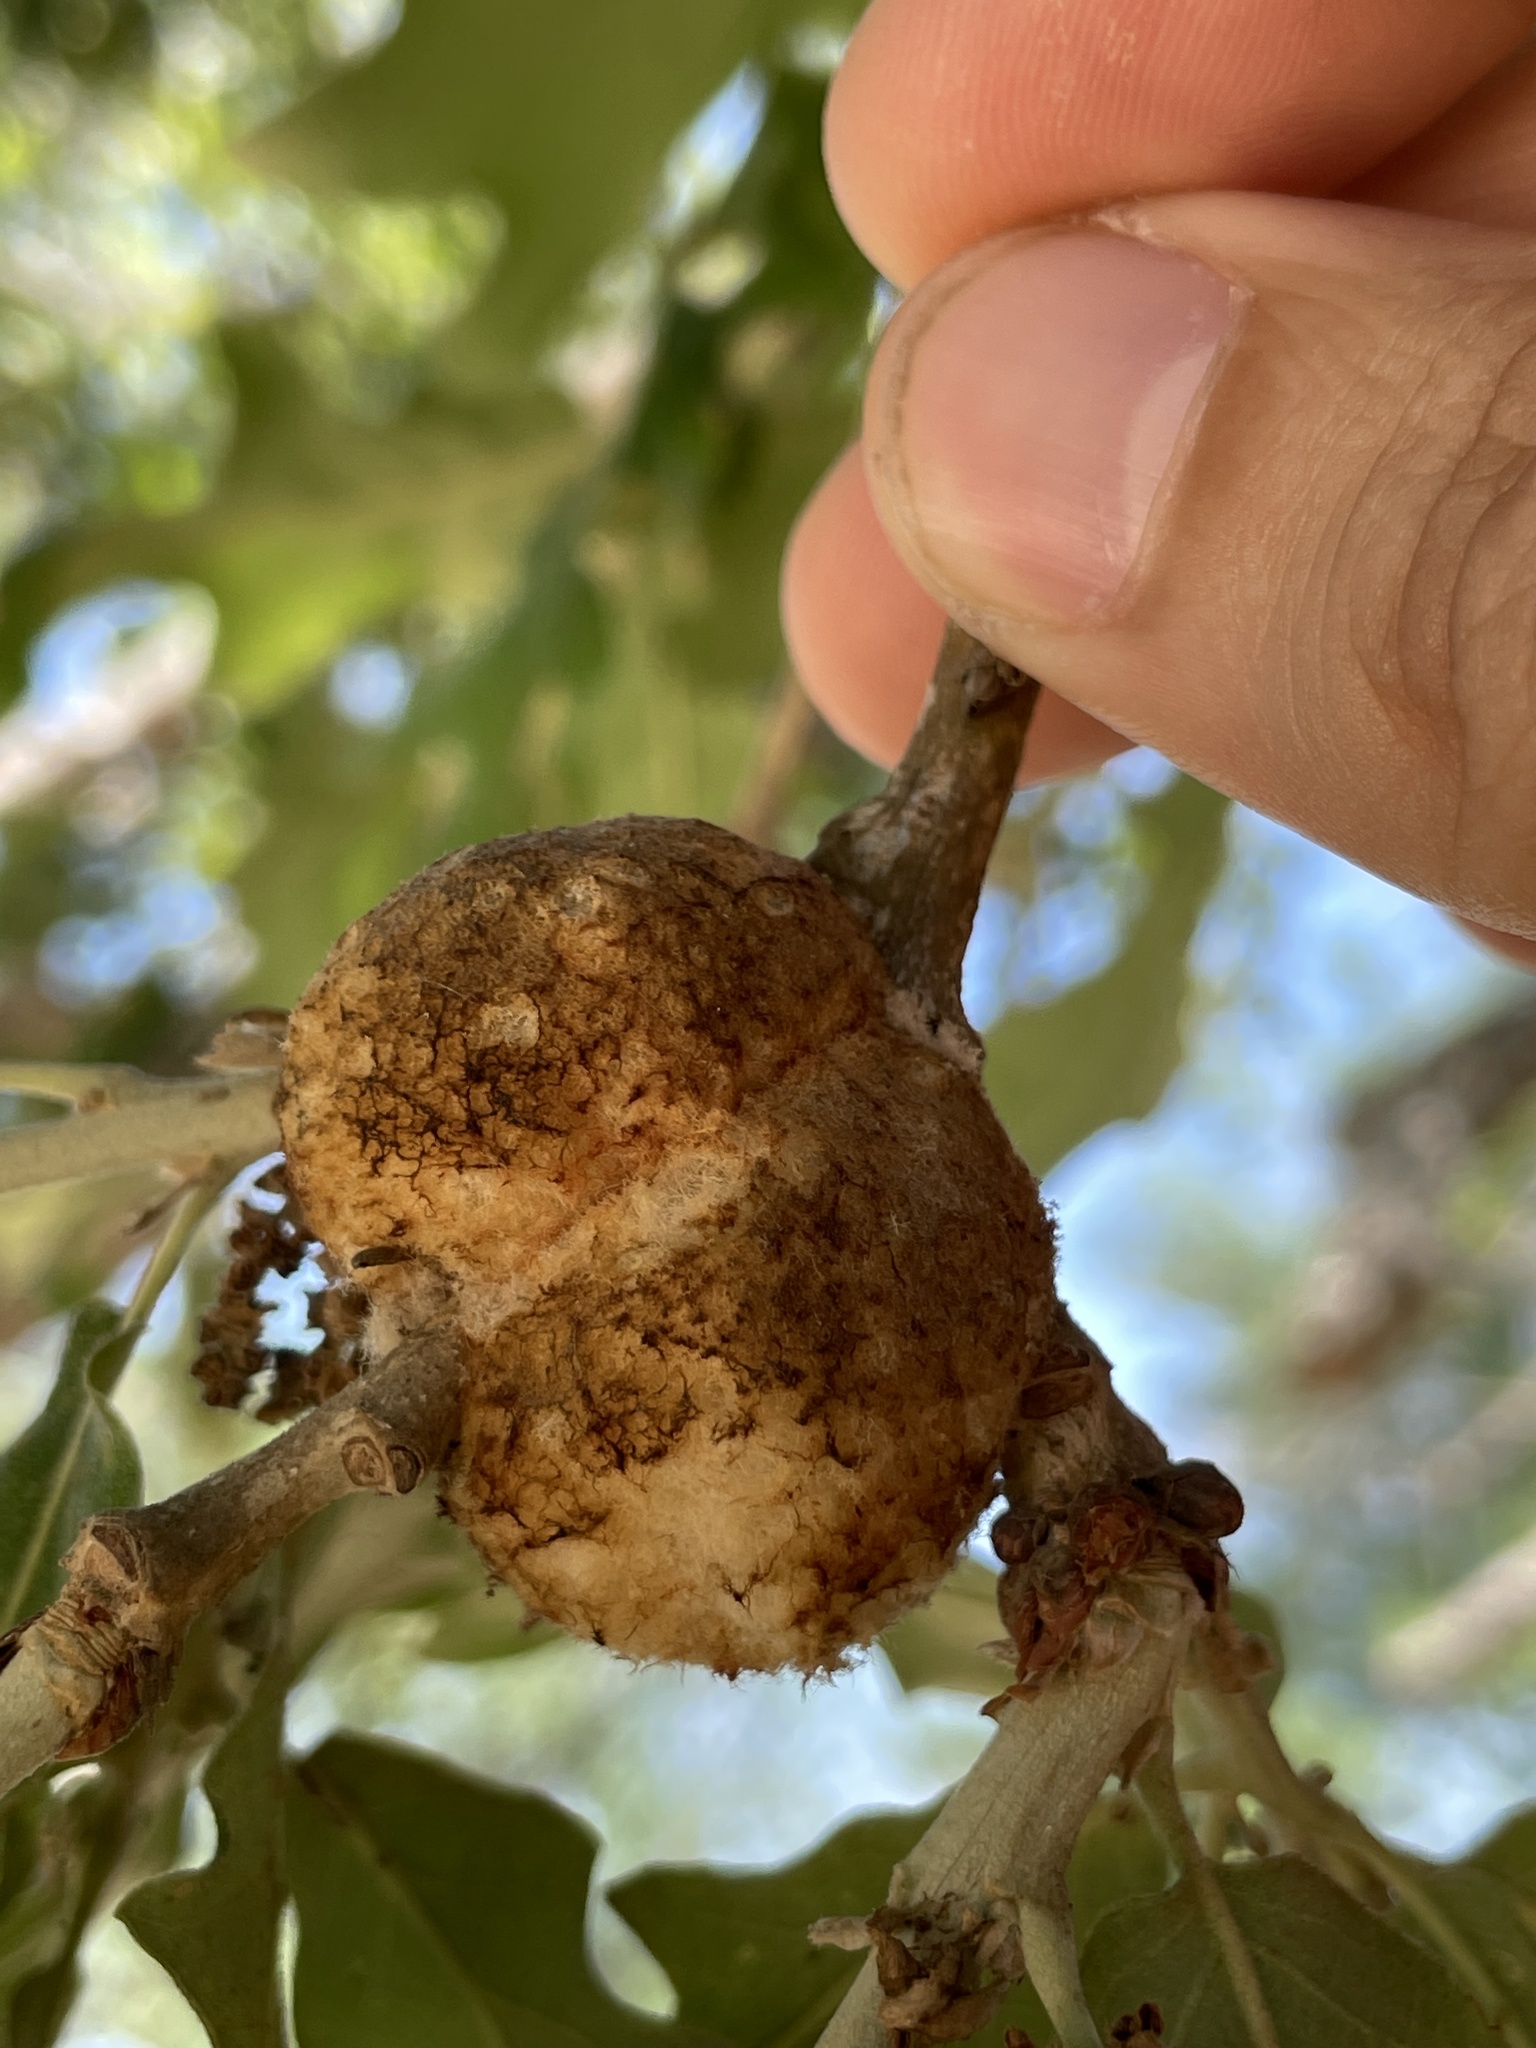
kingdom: Animalia
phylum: Arthropoda
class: Insecta
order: Hymenoptera
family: Cynipidae
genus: Striatoandricus
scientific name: Striatoandricus aciculatus
